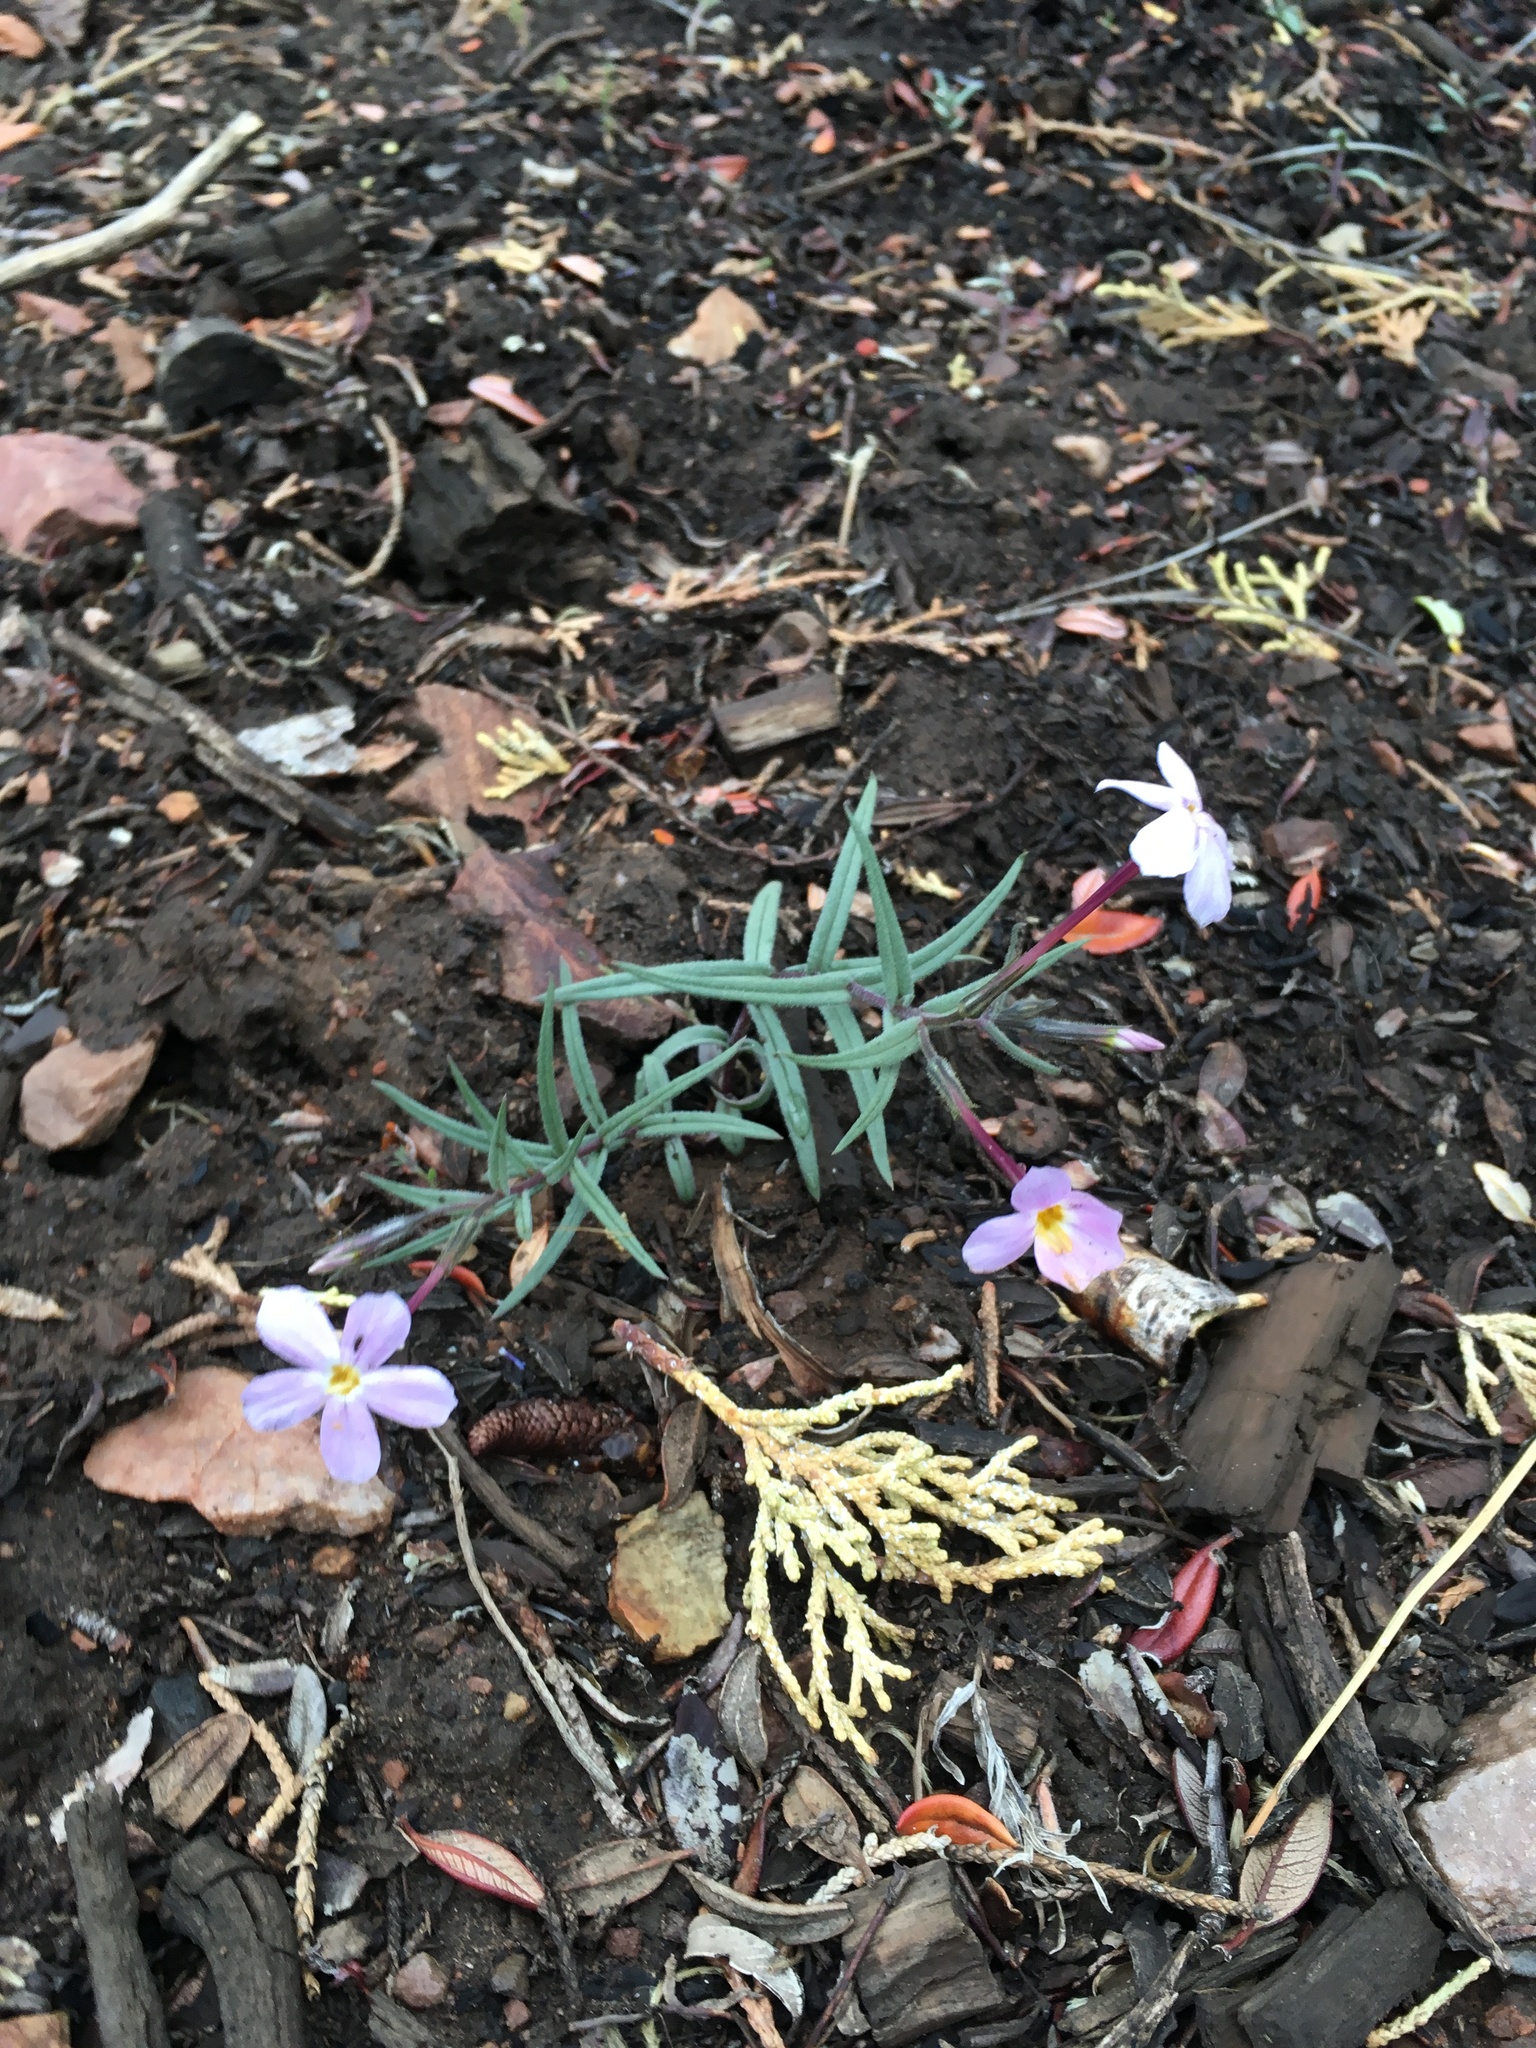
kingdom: Plantae
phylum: Tracheophyta
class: Magnoliopsida
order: Ericales
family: Polemoniaceae
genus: Phlox
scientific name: Phlox dolichantha
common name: Bear valley phlox
